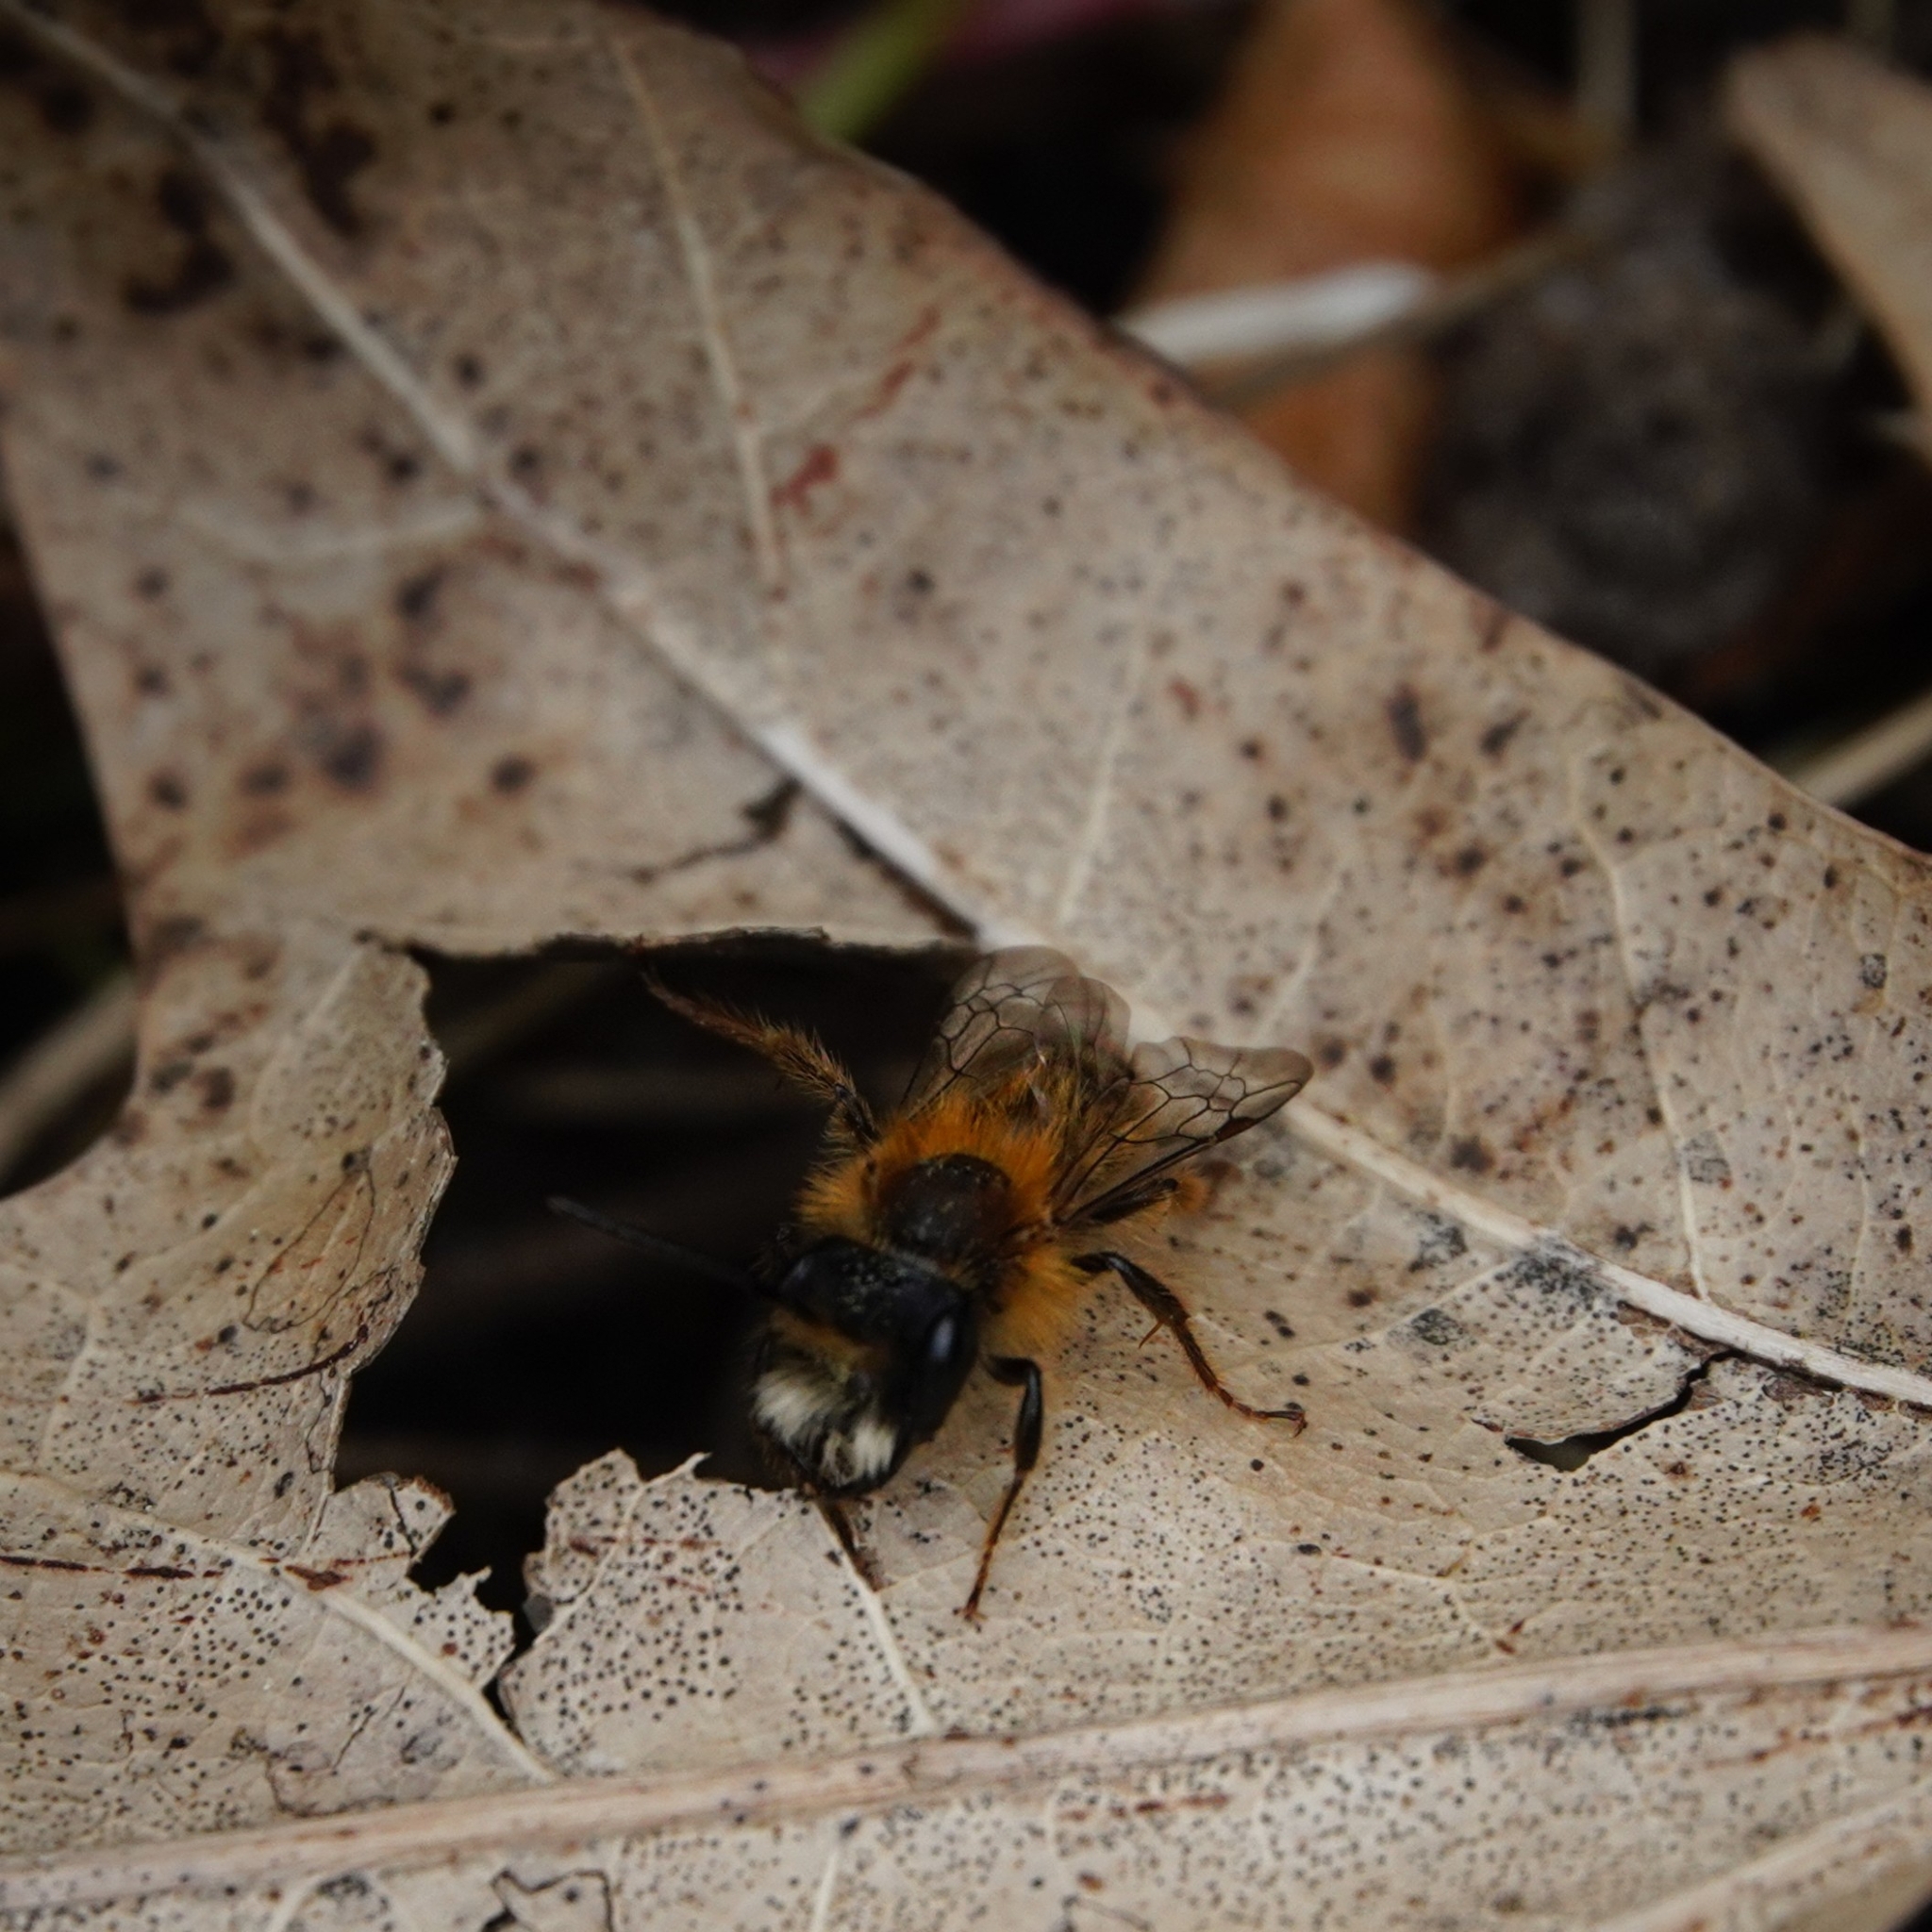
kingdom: Animalia
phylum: Arthropoda
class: Insecta
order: Hymenoptera
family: Andrenidae
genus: Andrena
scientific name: Andrena fulva
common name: Tawny mining bee
